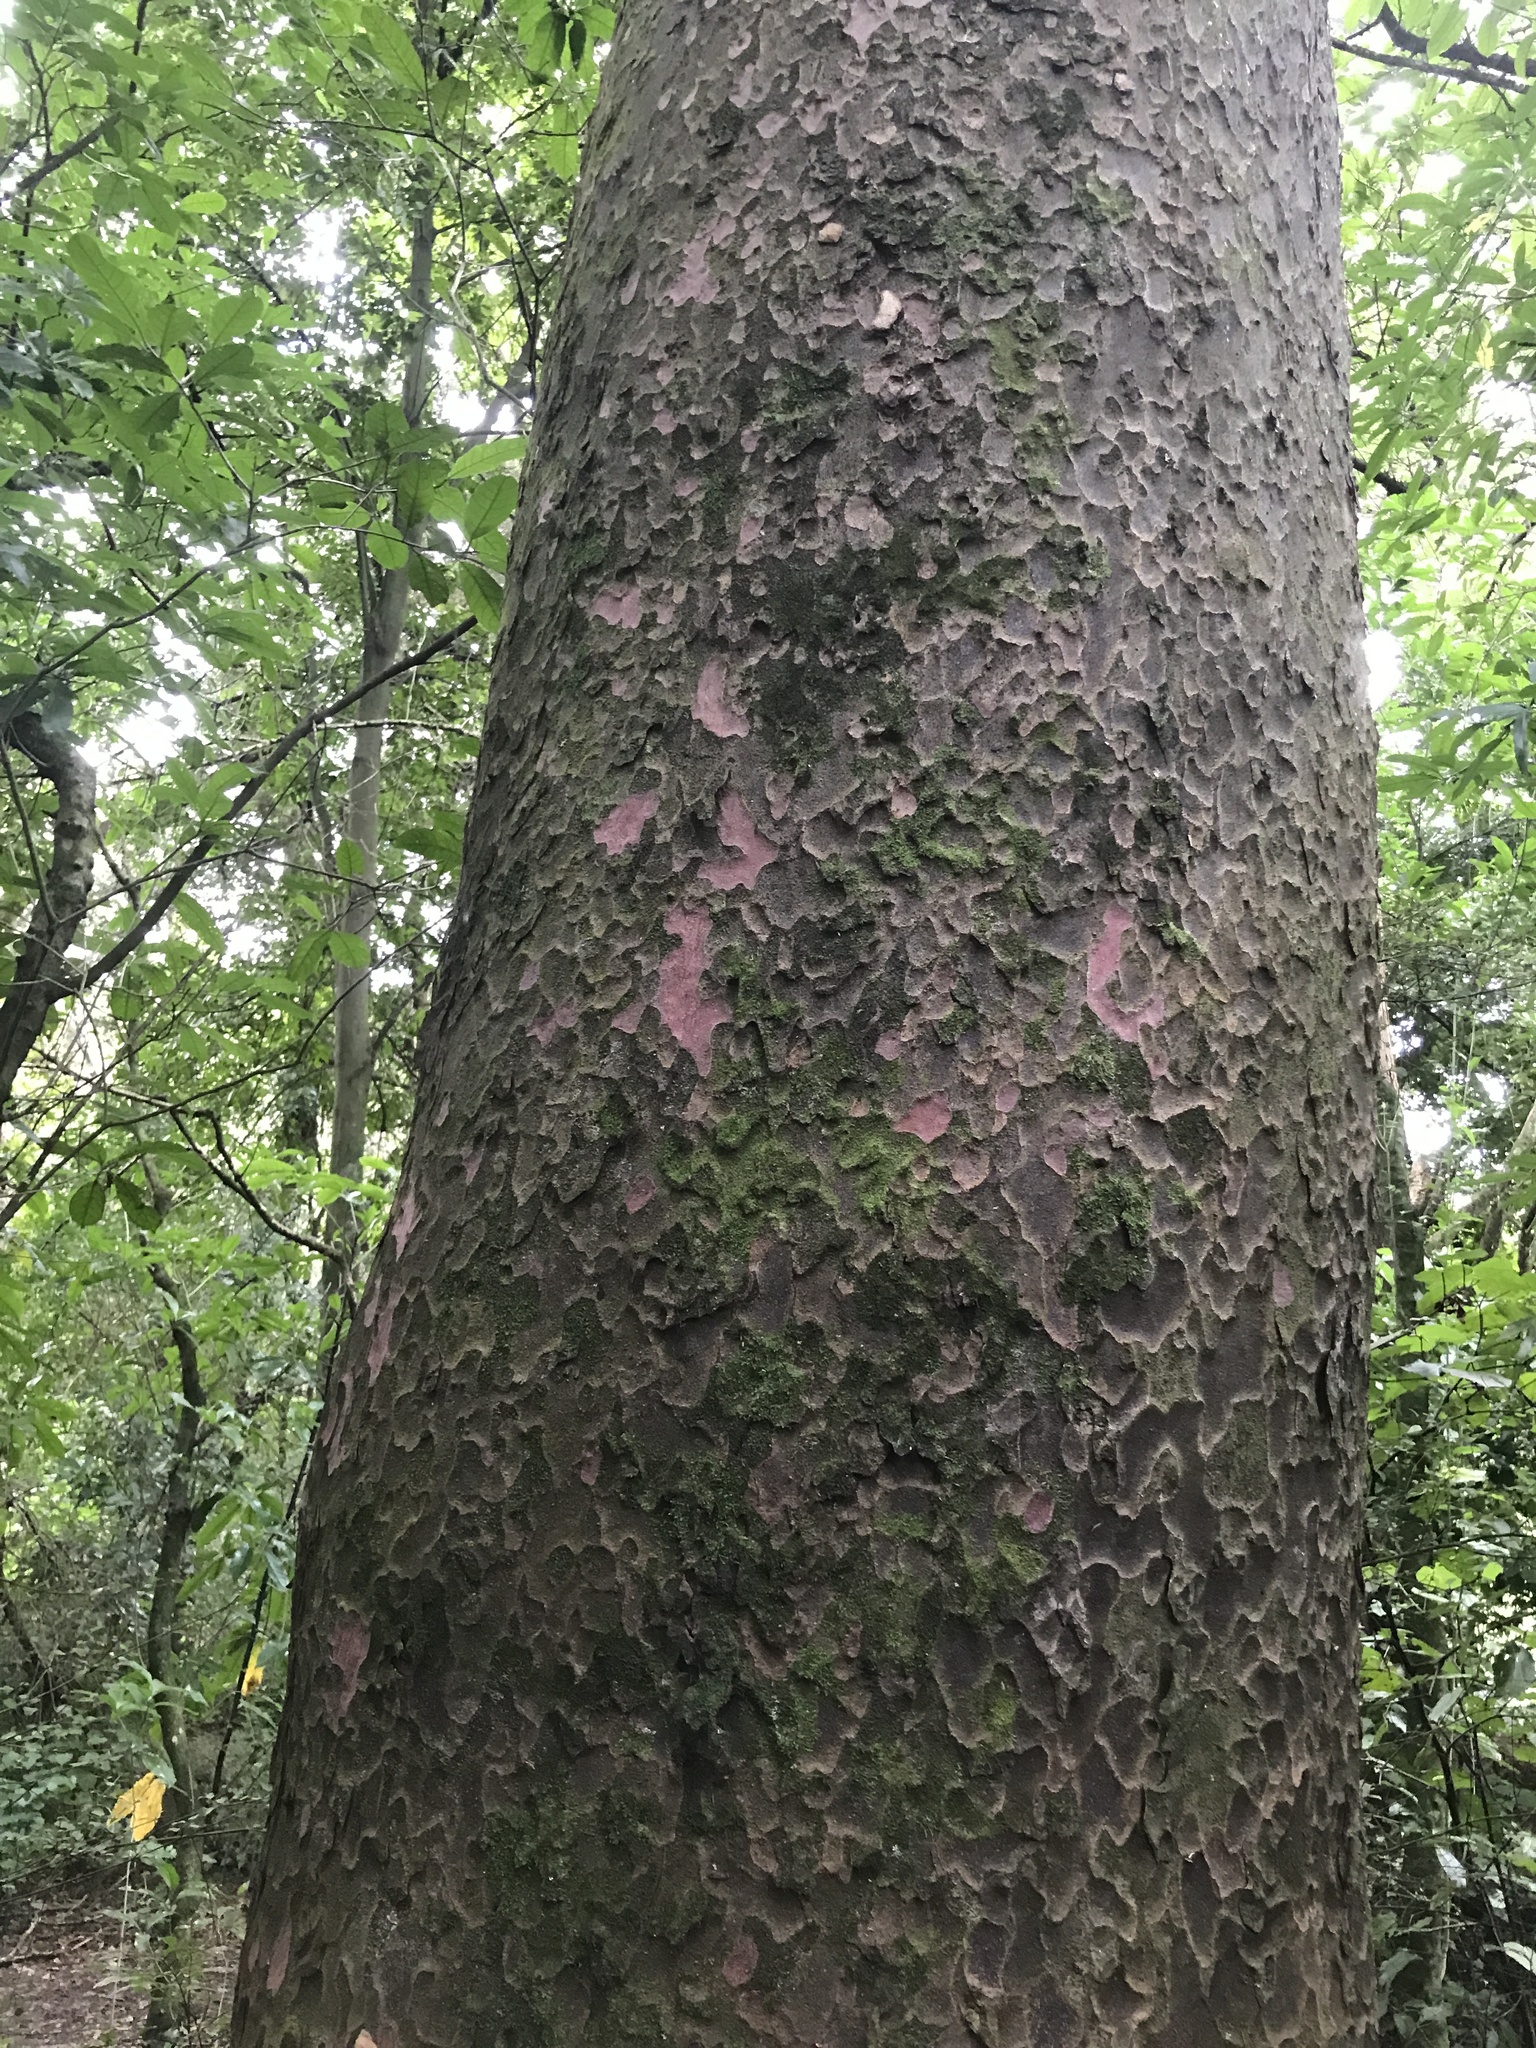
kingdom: Plantae
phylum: Tracheophyta
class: Pinopsida
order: Pinales
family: Podocarpaceae
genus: Prumnopitys
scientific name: Prumnopitys taxifolia
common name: Matai
